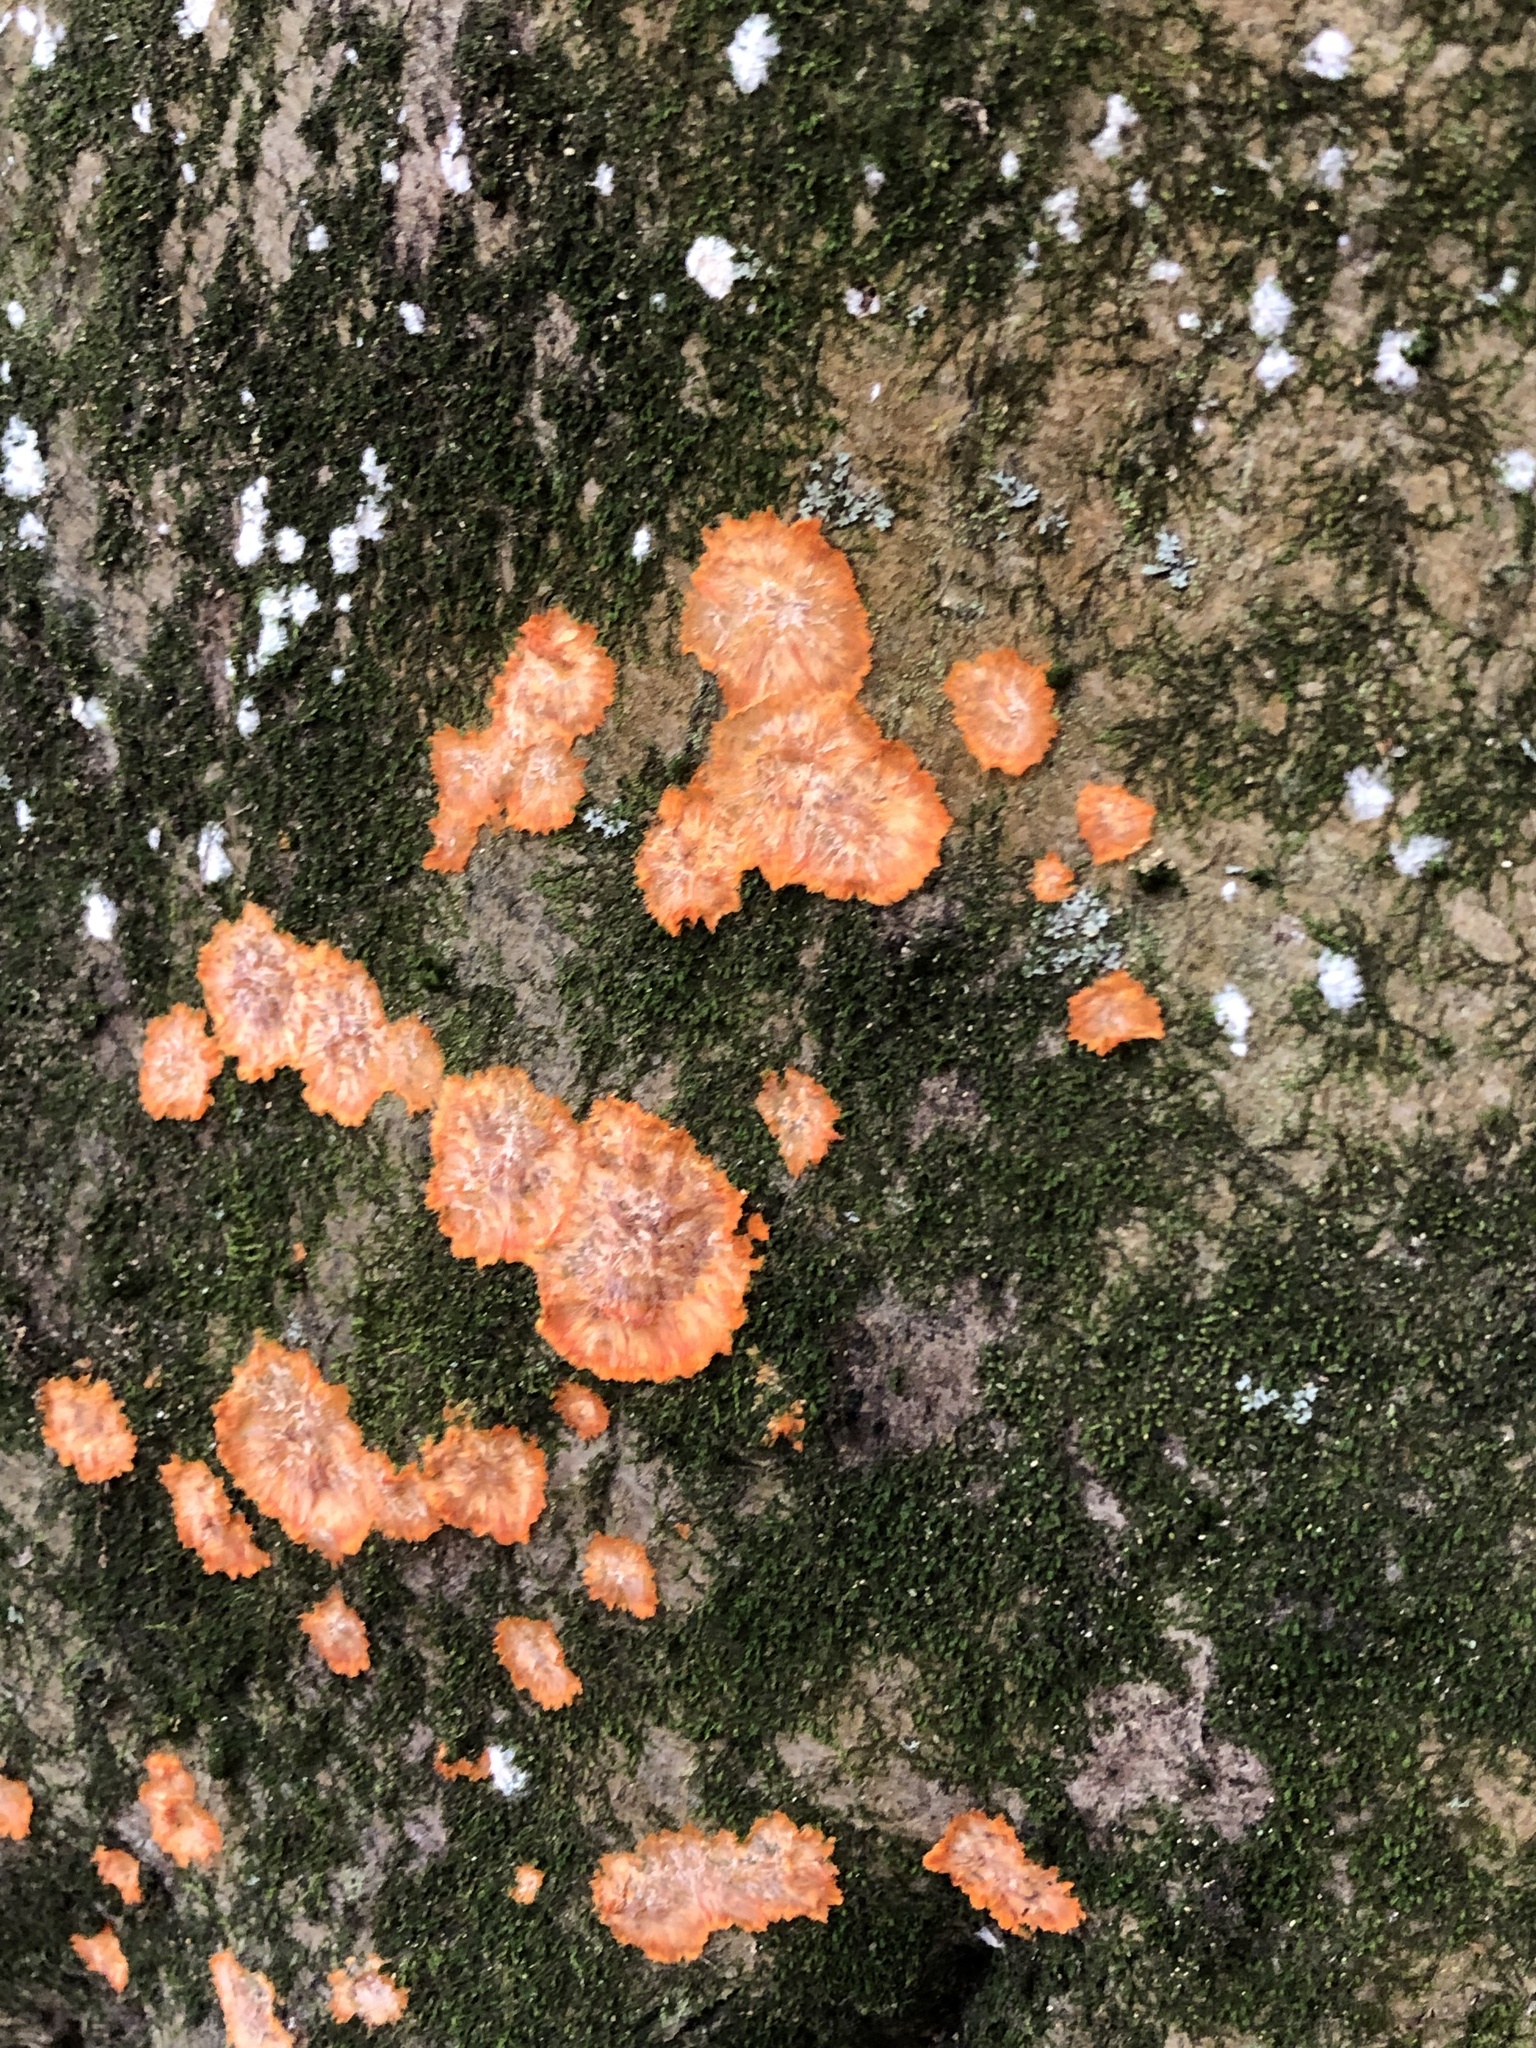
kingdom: Fungi
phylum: Basidiomycota
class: Agaricomycetes
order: Polyporales
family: Meruliaceae
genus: Phlebia
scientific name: Phlebia radiata
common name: Wrinkled crust
